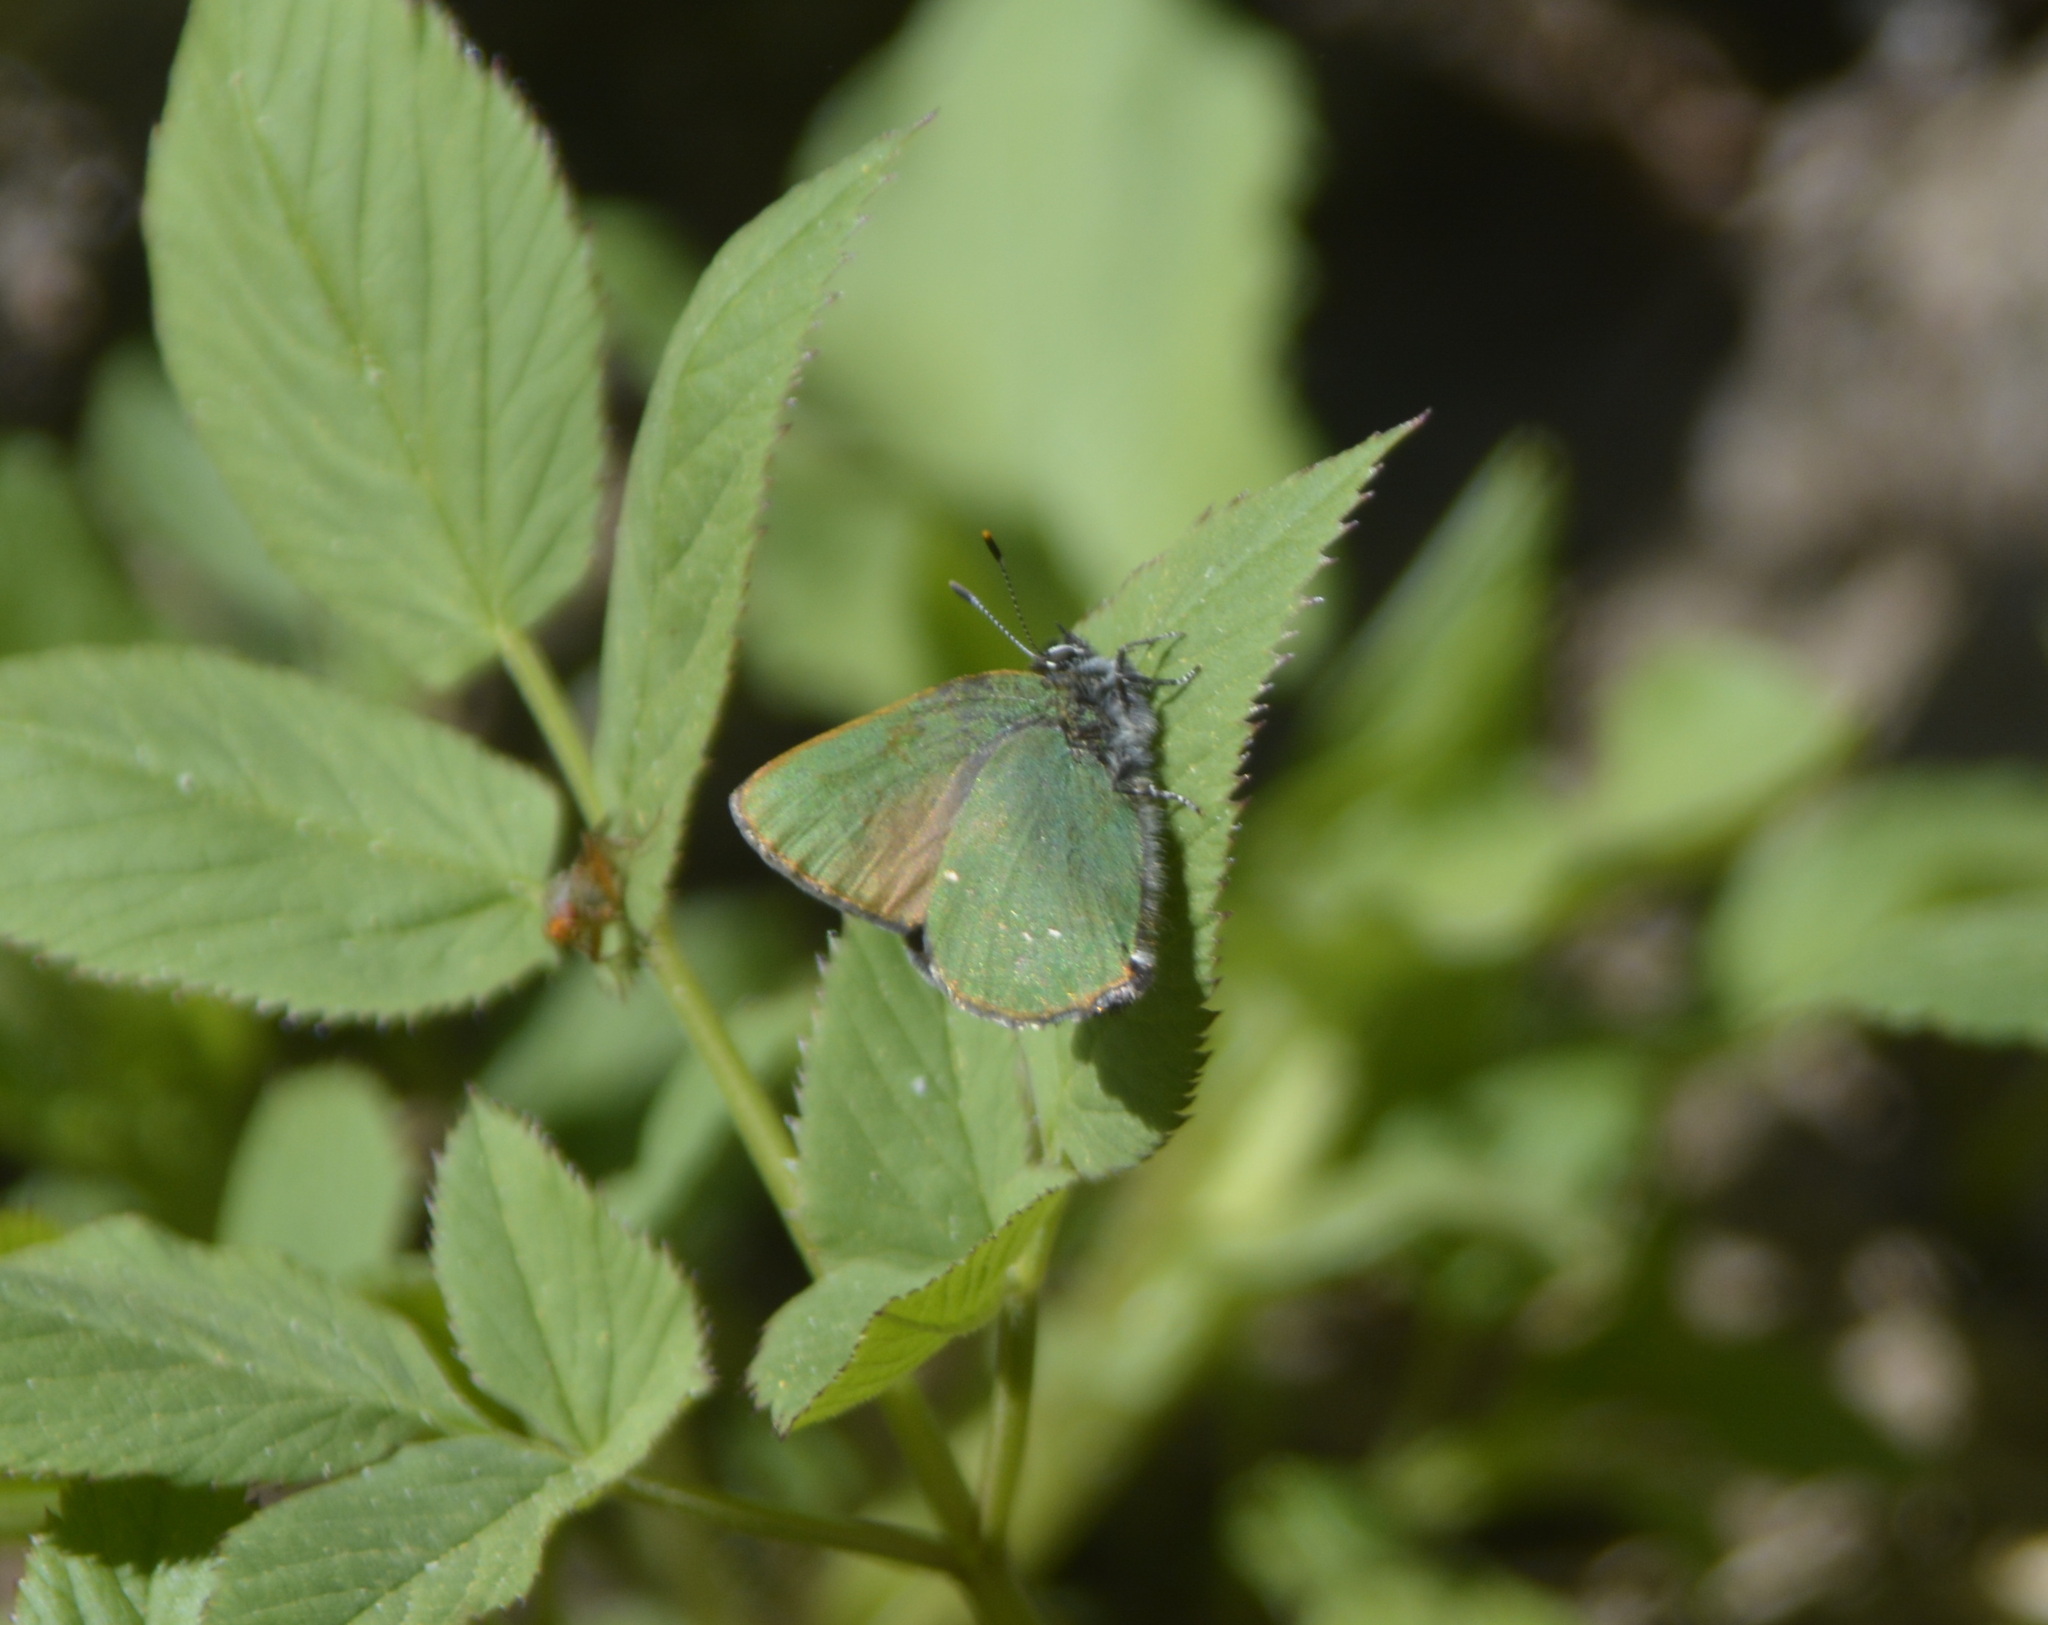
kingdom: Animalia
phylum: Arthropoda
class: Insecta
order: Lepidoptera
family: Lycaenidae
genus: Callophrys
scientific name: Callophrys rubi
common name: Green hairstreak
